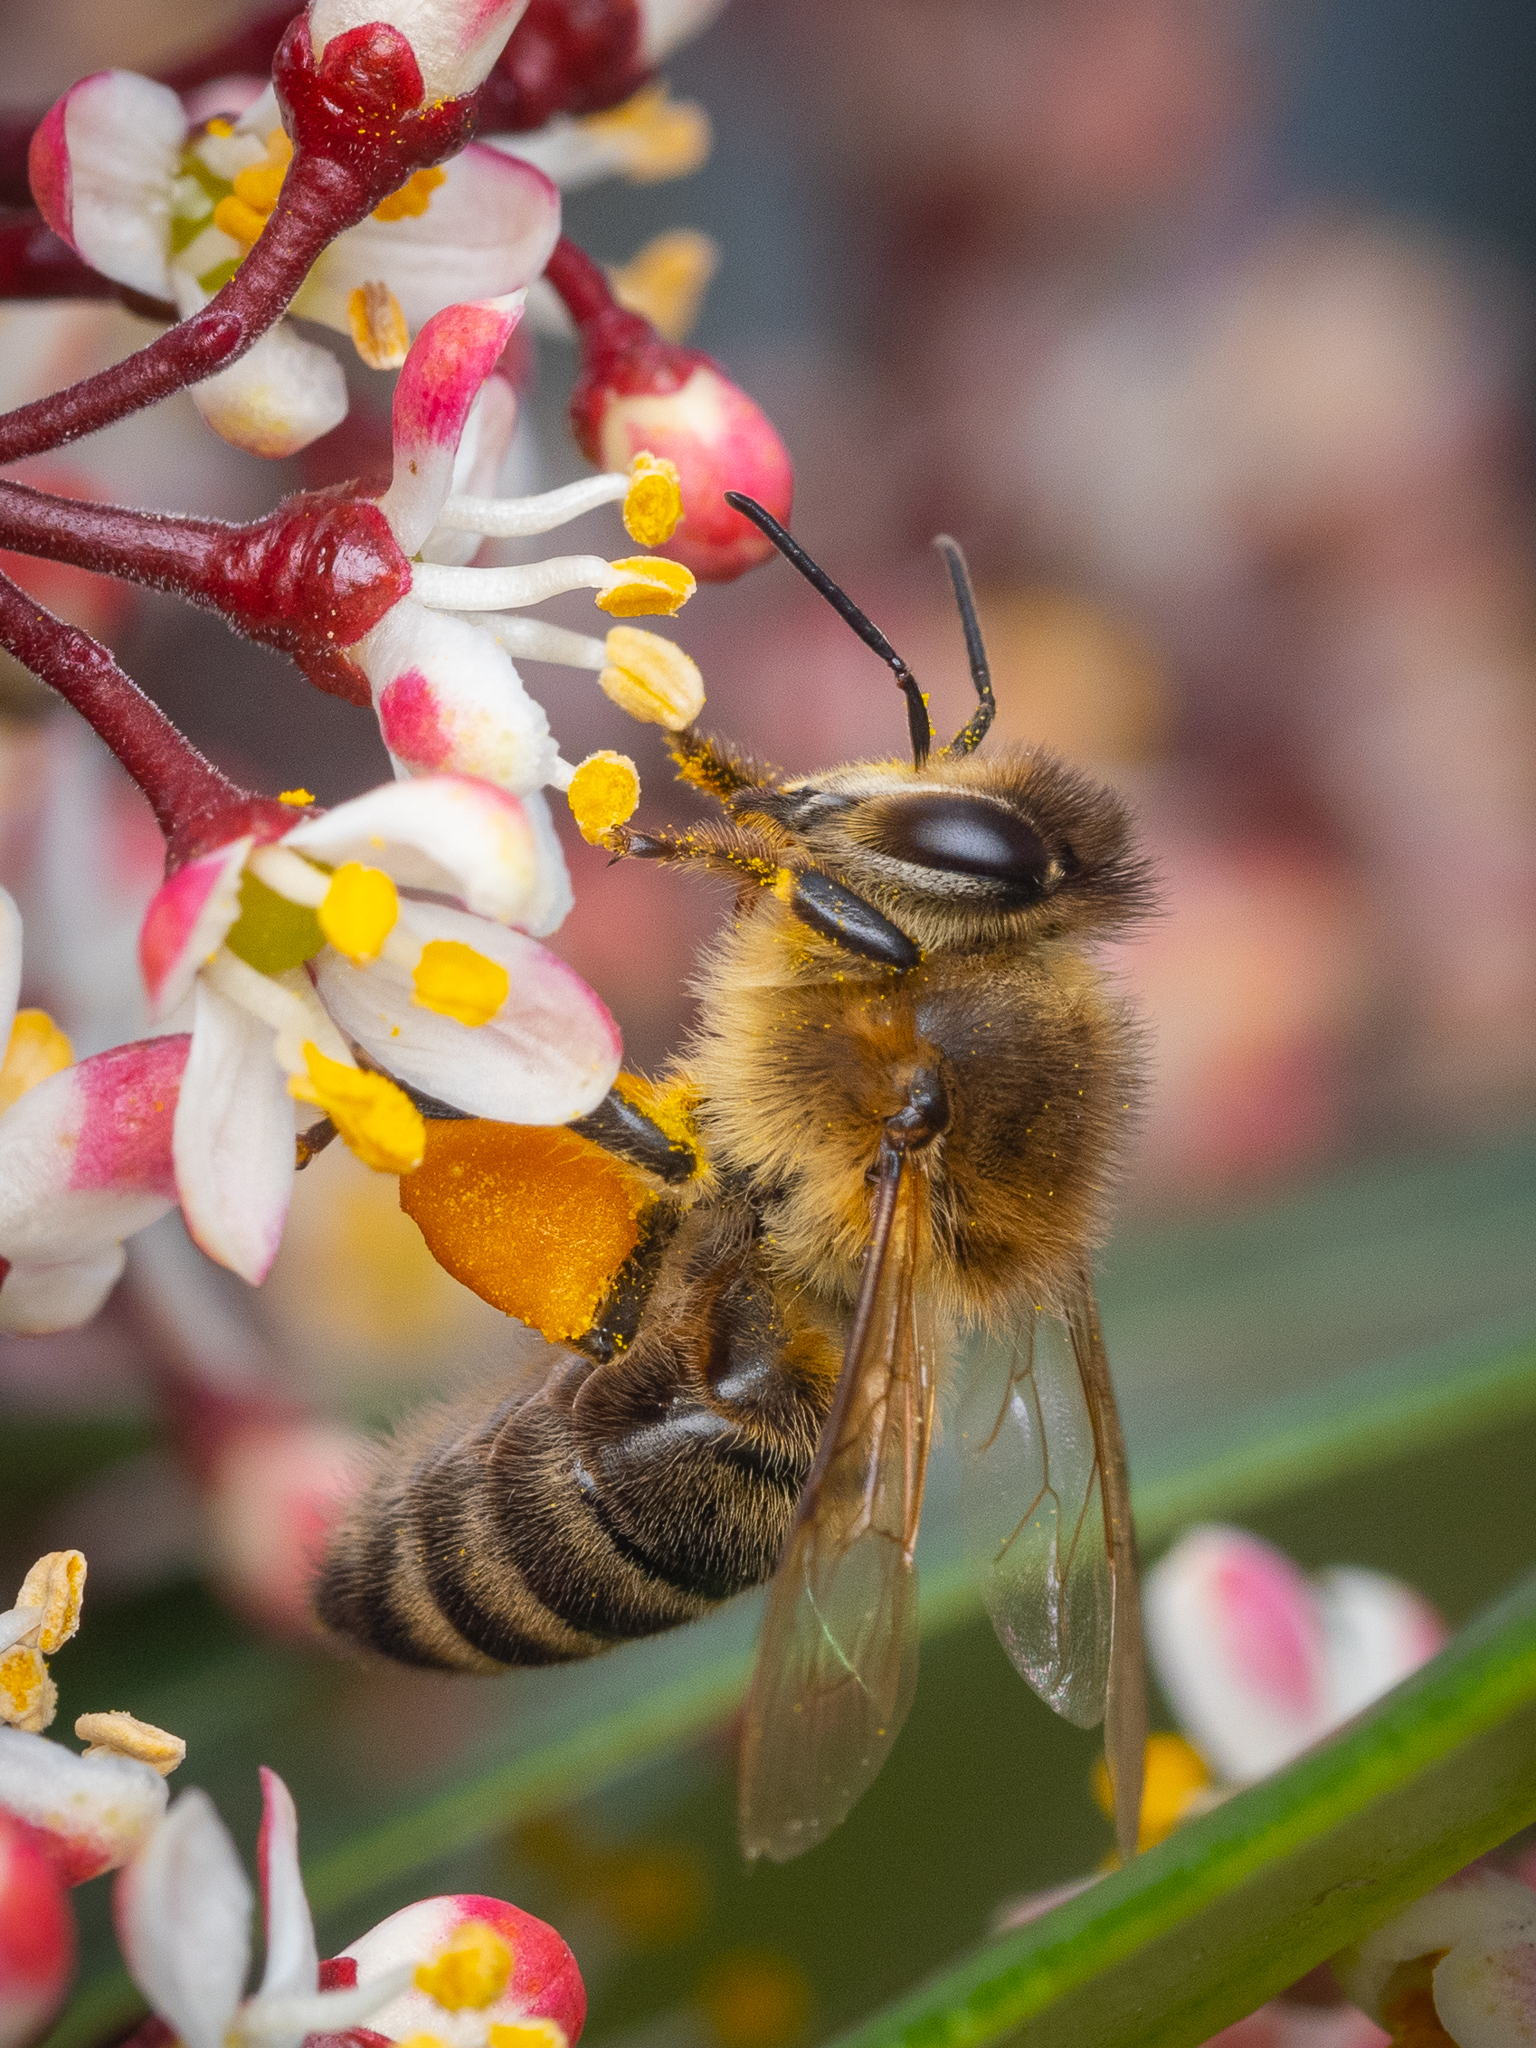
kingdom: Animalia
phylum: Arthropoda
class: Insecta
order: Hymenoptera
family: Apidae
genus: Apis
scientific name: Apis mellifera
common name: Honey bee
